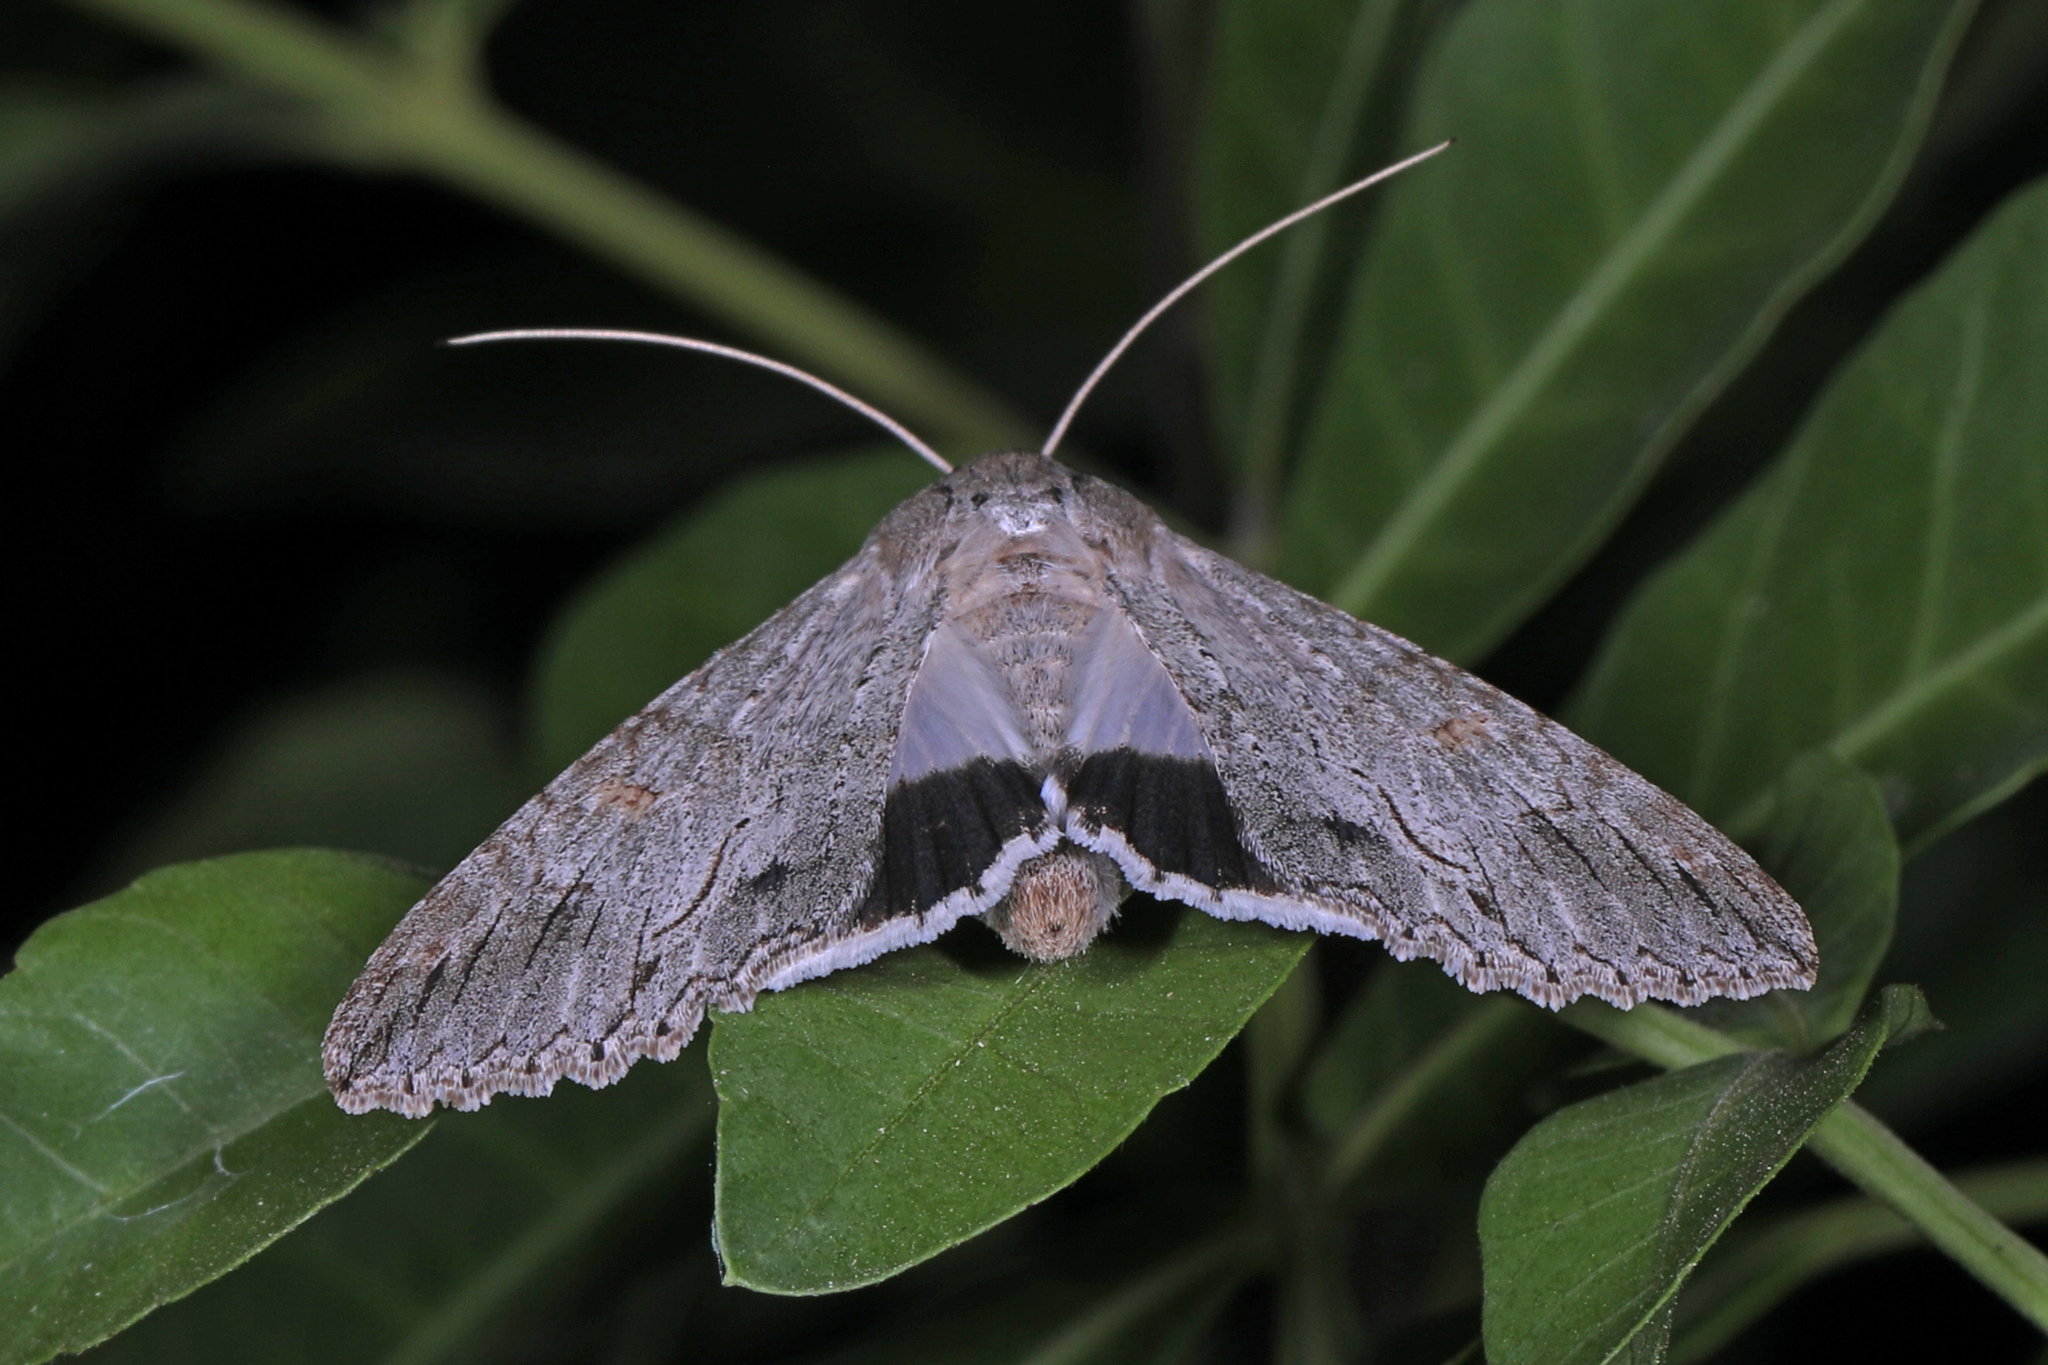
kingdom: Animalia
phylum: Arthropoda
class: Insecta
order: Lepidoptera
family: Erebidae
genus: Melipotis
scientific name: Melipotis acontioides
